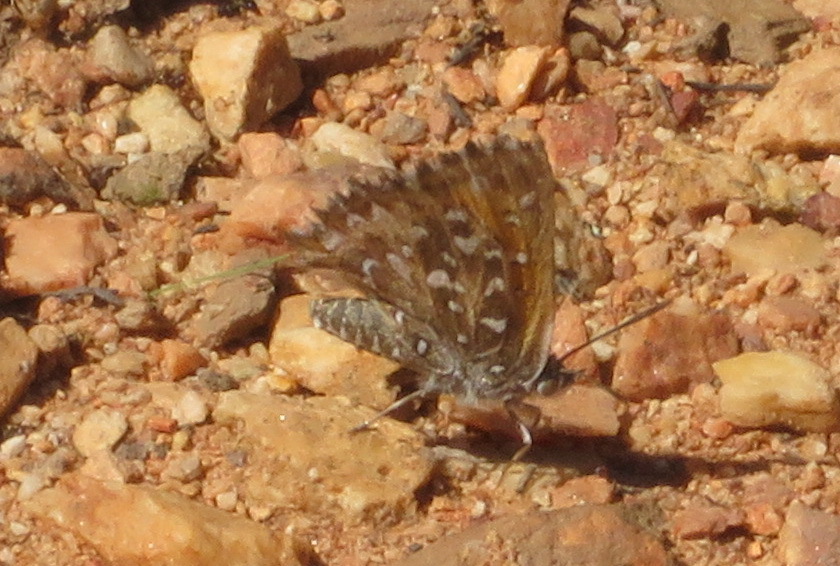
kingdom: Animalia
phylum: Arthropoda
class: Insecta
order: Lepidoptera
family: Lycaenidae
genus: Phasis
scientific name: Phasis macmasteri
